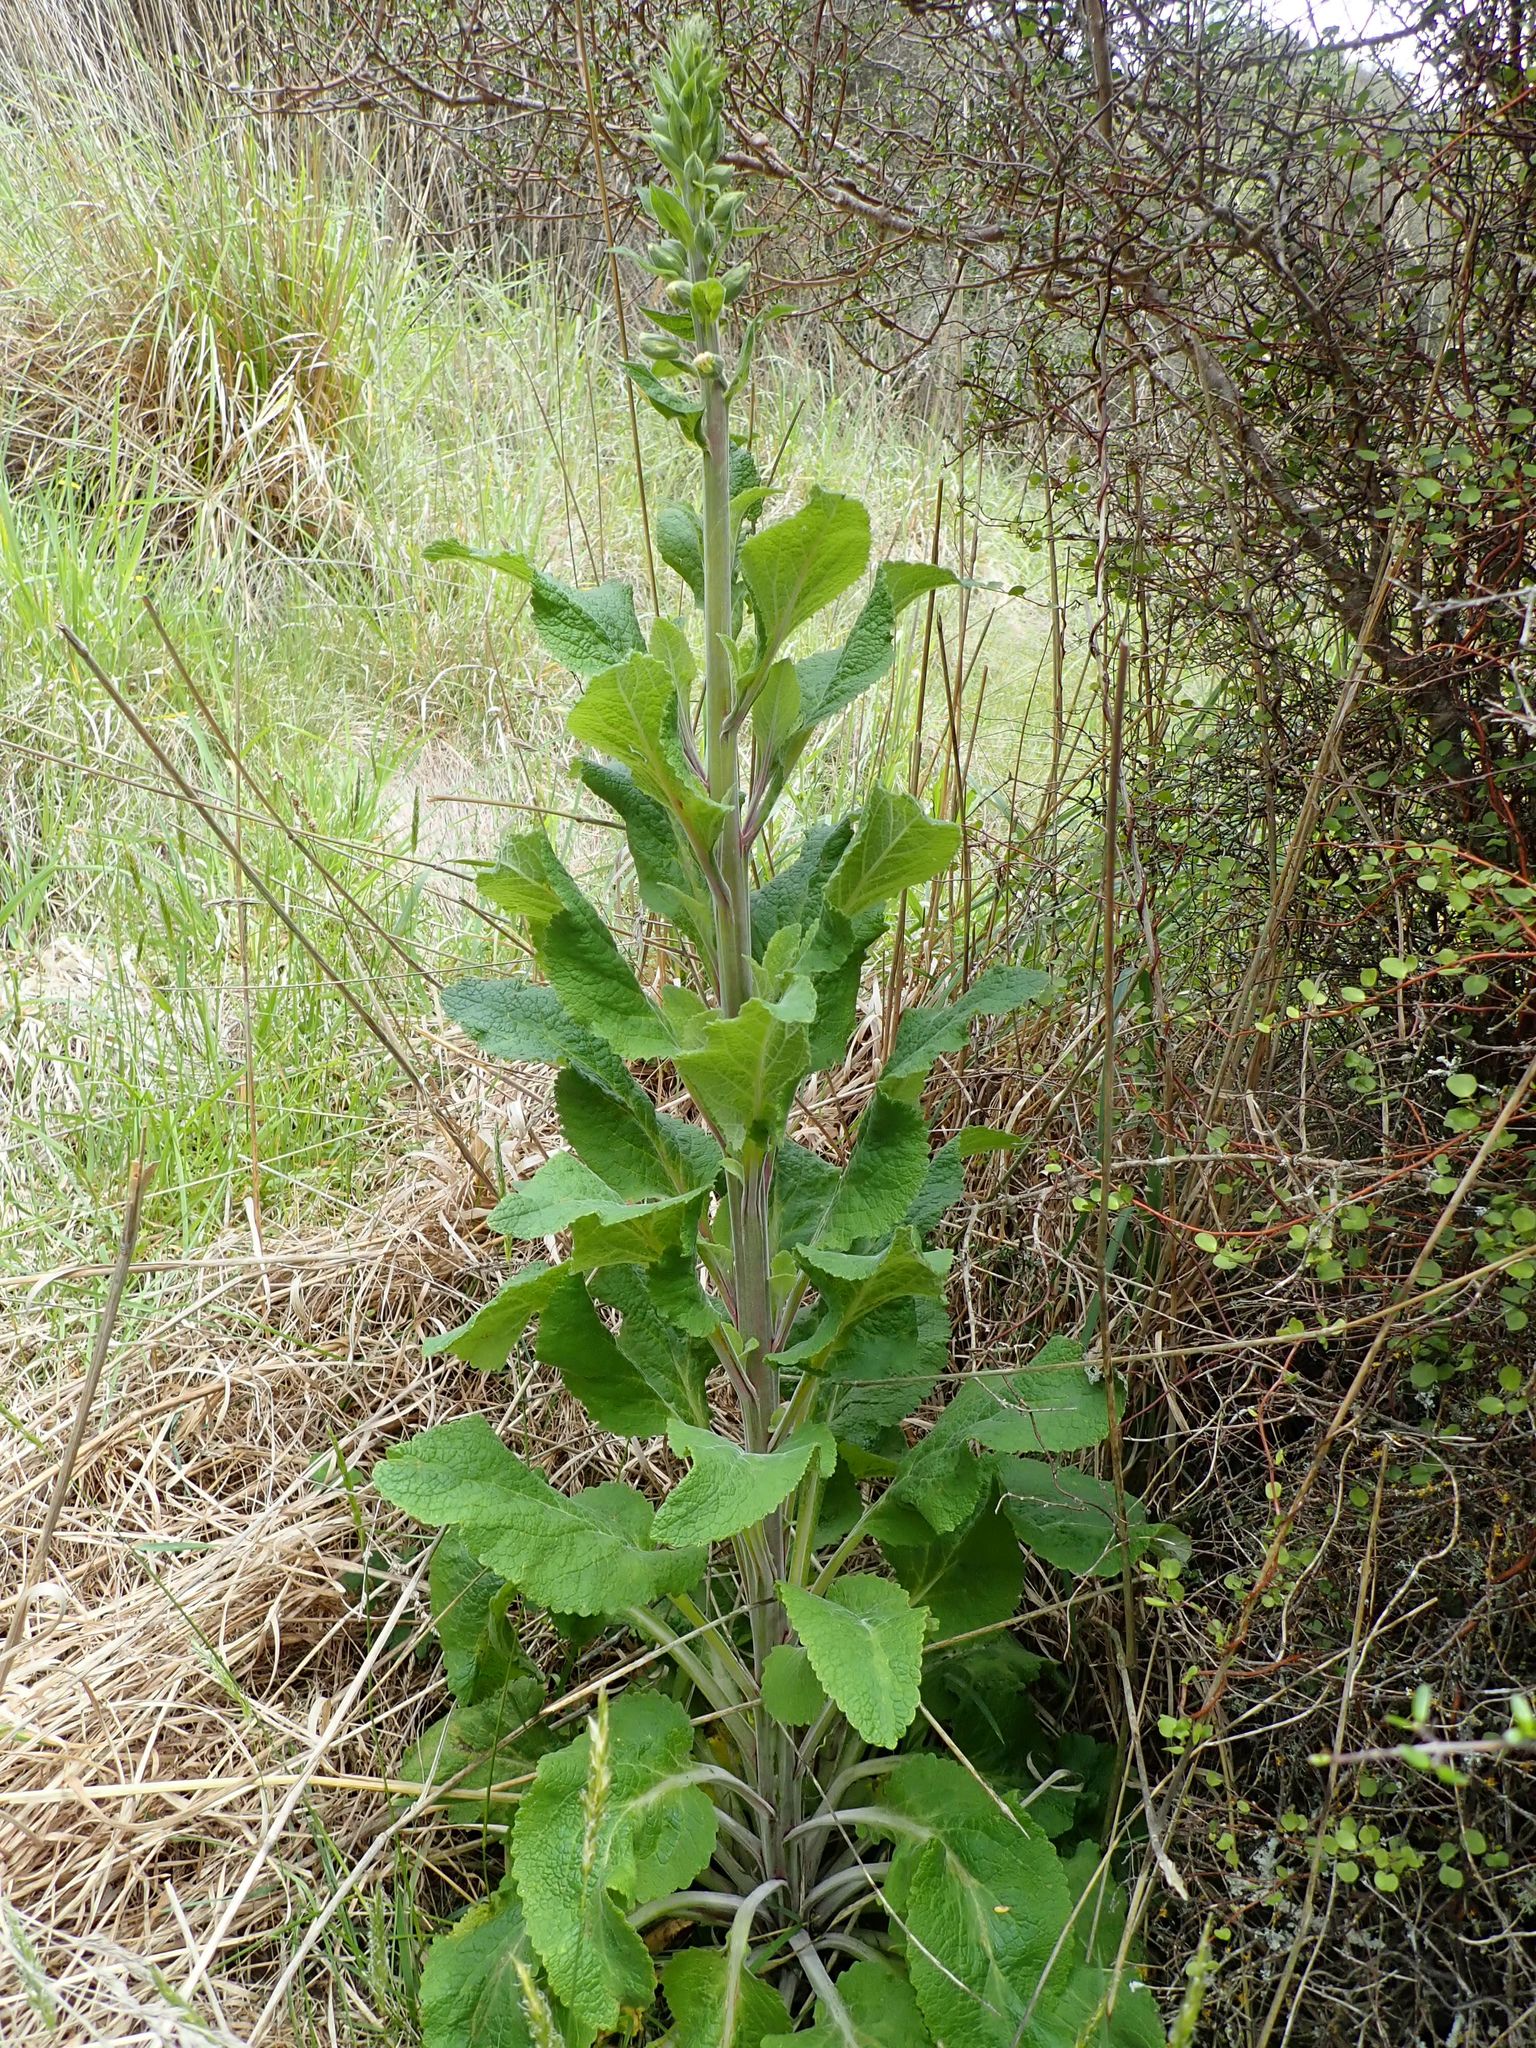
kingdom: Plantae
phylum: Tracheophyta
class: Magnoliopsida
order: Lamiales
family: Plantaginaceae
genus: Digitalis
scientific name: Digitalis purpurea
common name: Foxglove
